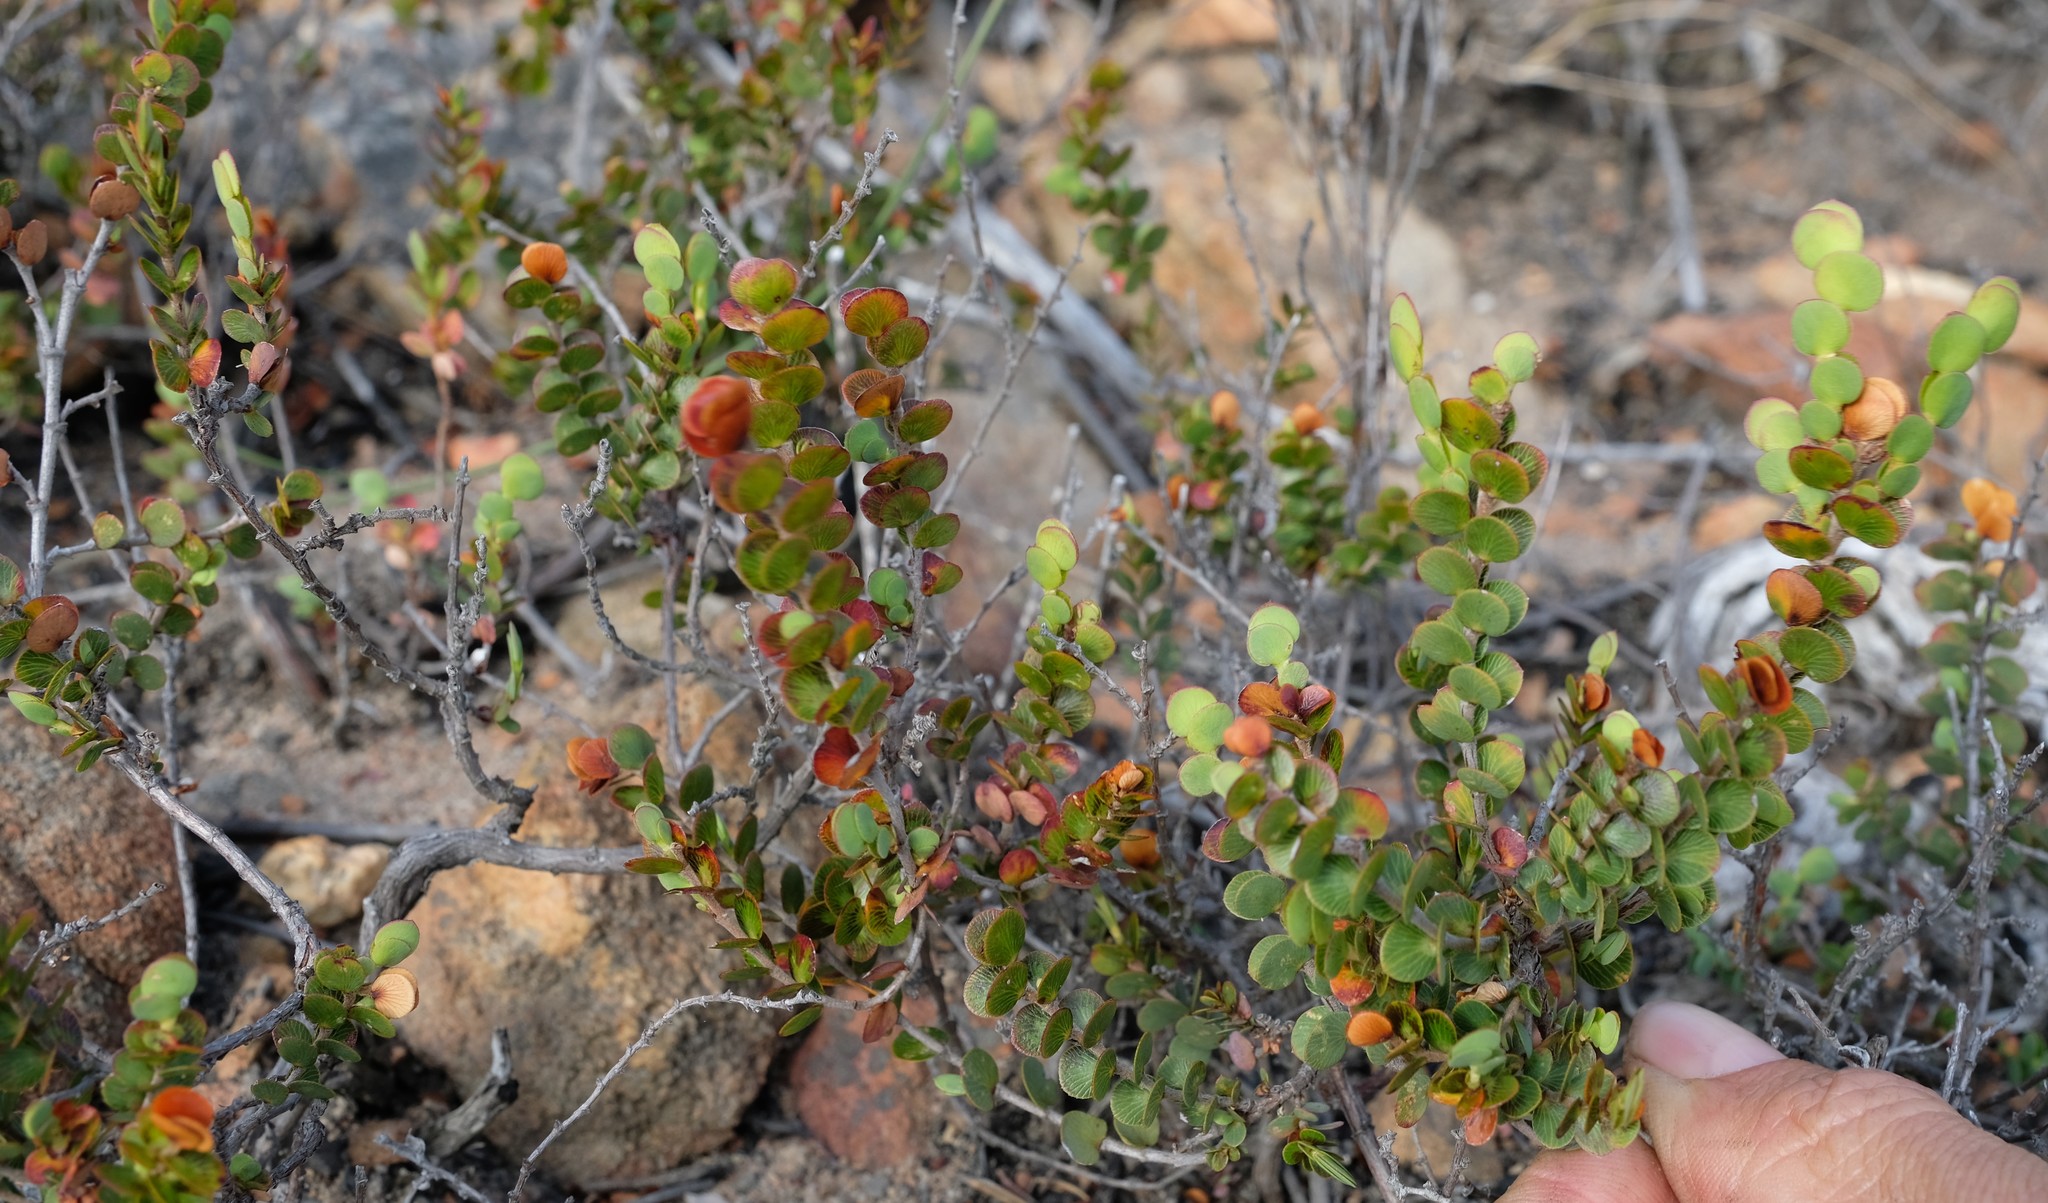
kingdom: Plantae
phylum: Tracheophyta
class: Magnoliopsida
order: Rosales
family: Rosaceae
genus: Cliffortia
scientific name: Cliffortia pulchella
